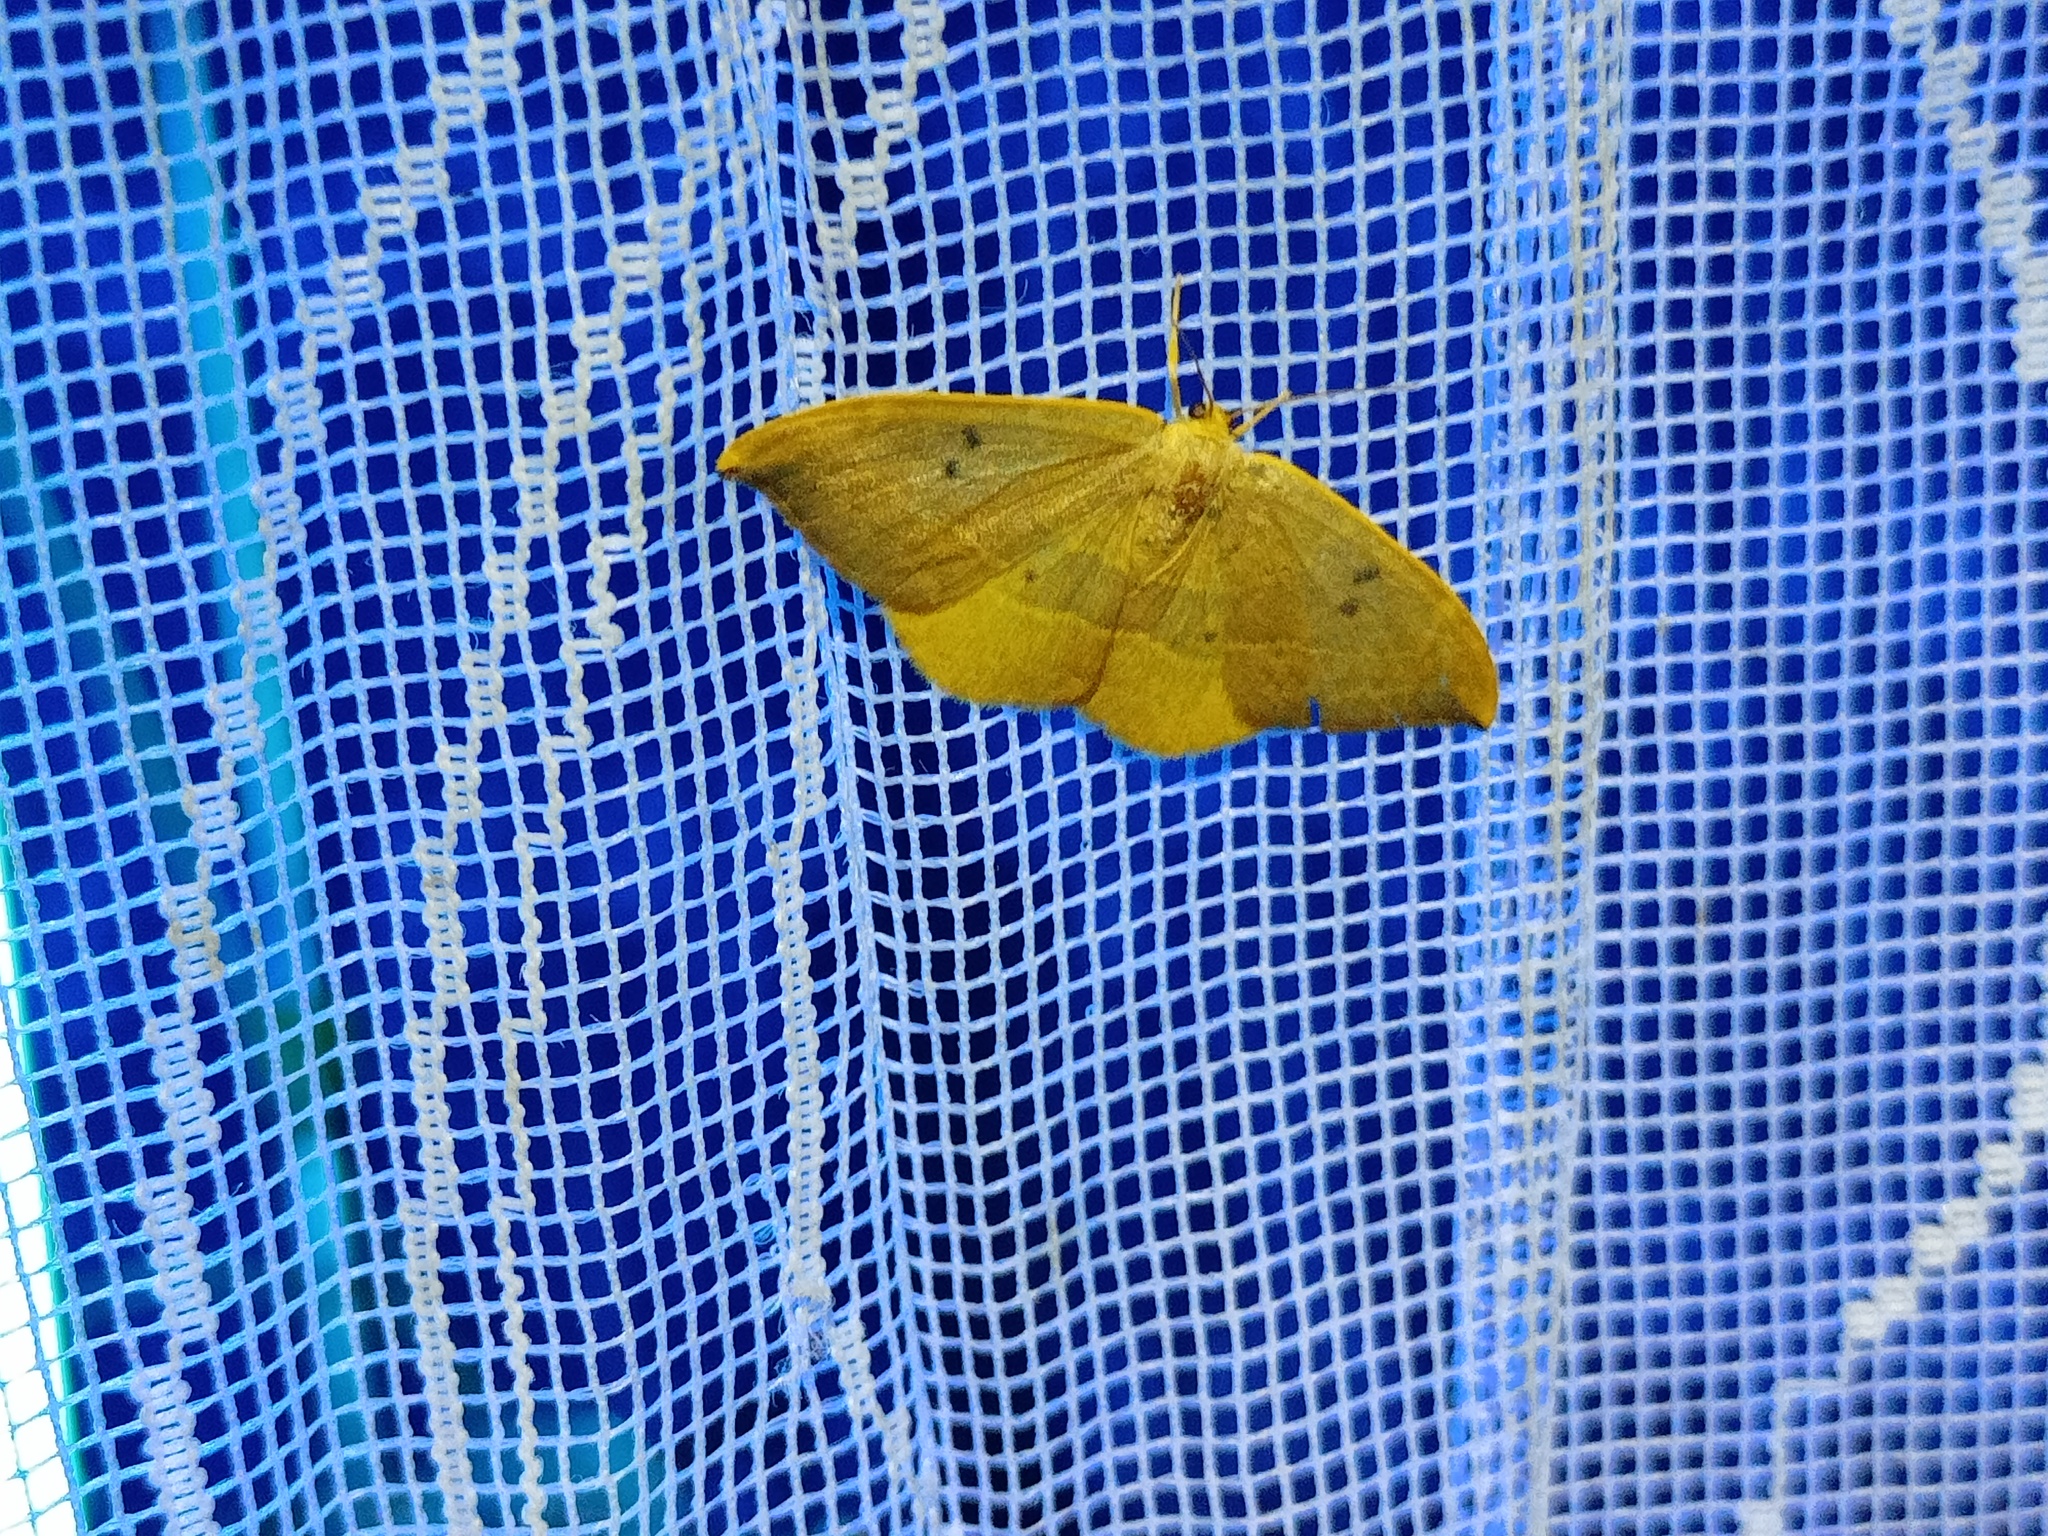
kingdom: Animalia
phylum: Arthropoda
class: Insecta
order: Lepidoptera
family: Drepanidae
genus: Watsonalla
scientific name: Watsonalla binaria
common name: Oak hook-tip
